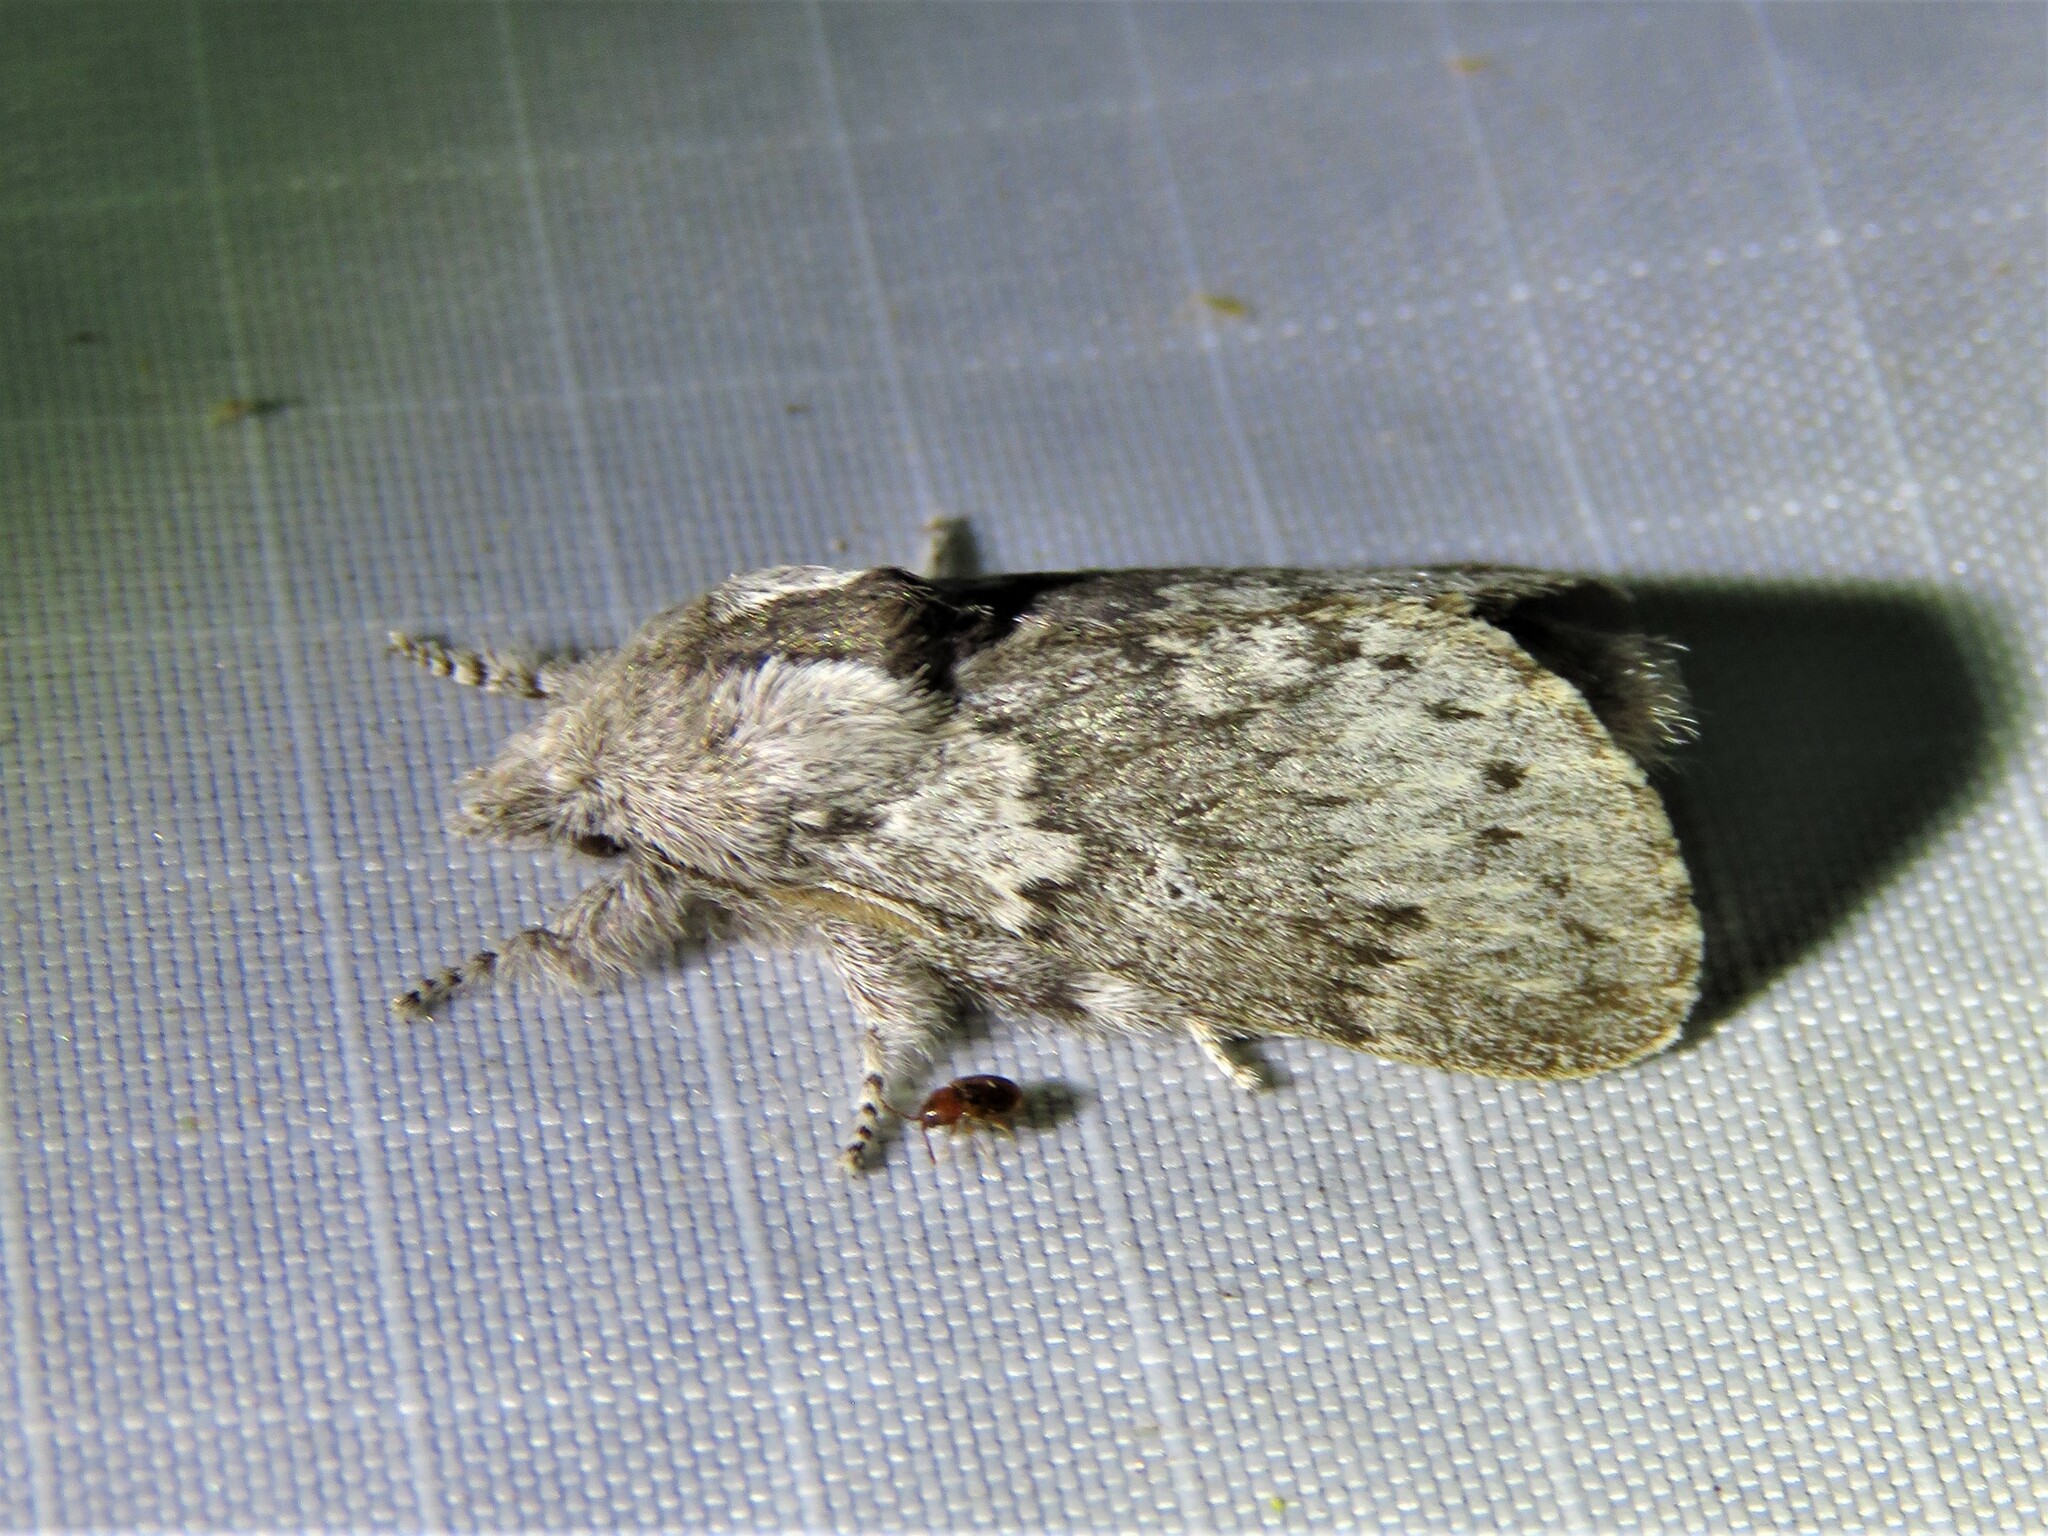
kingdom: Animalia
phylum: Arthropoda
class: Insecta
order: Lepidoptera
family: Lasiocampidae
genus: Heteropacha
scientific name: Heteropacha rileyana
